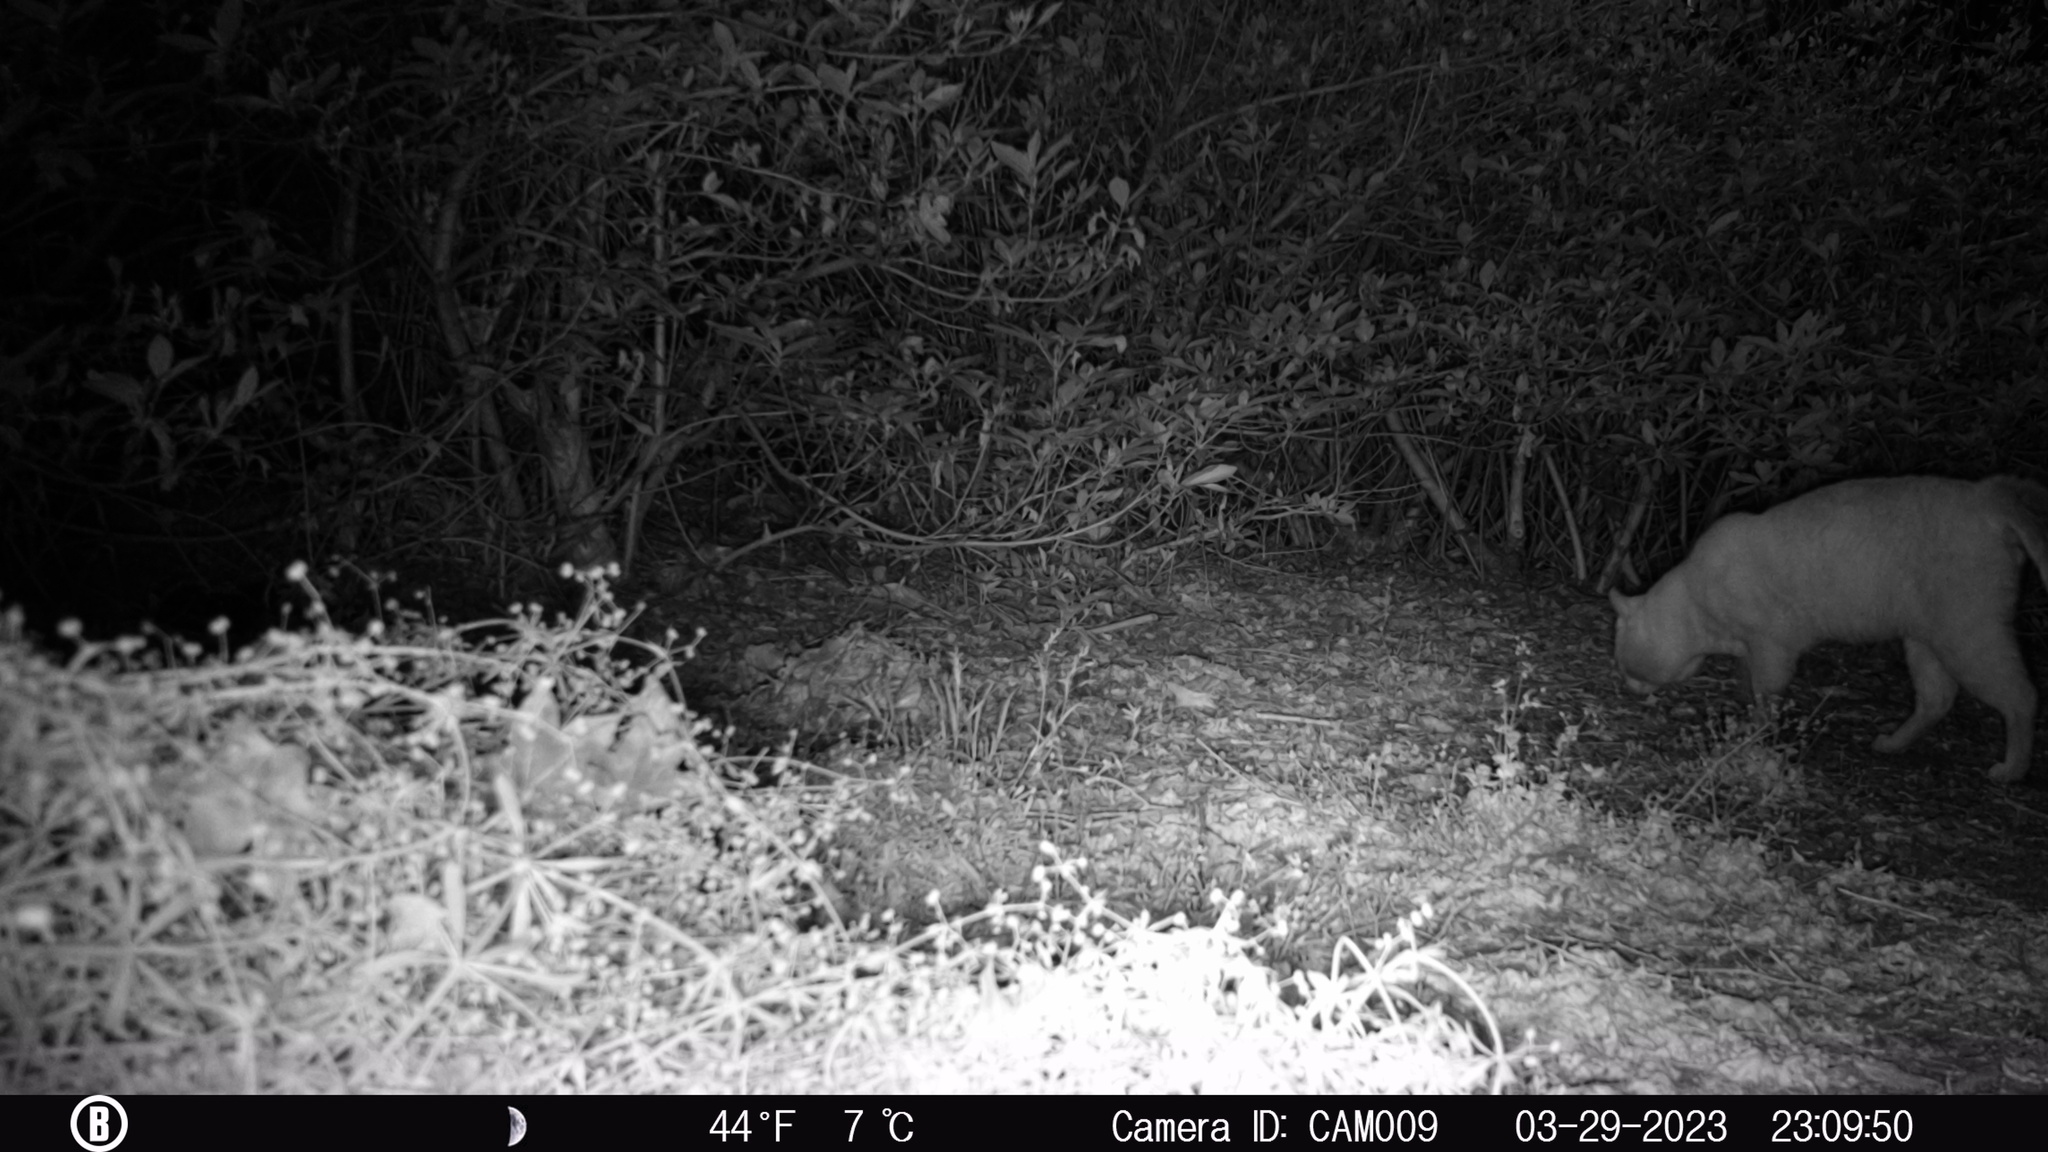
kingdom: Animalia
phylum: Chordata
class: Mammalia
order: Carnivora
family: Felidae
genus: Felis
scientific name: Felis catus
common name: Domestic cat
